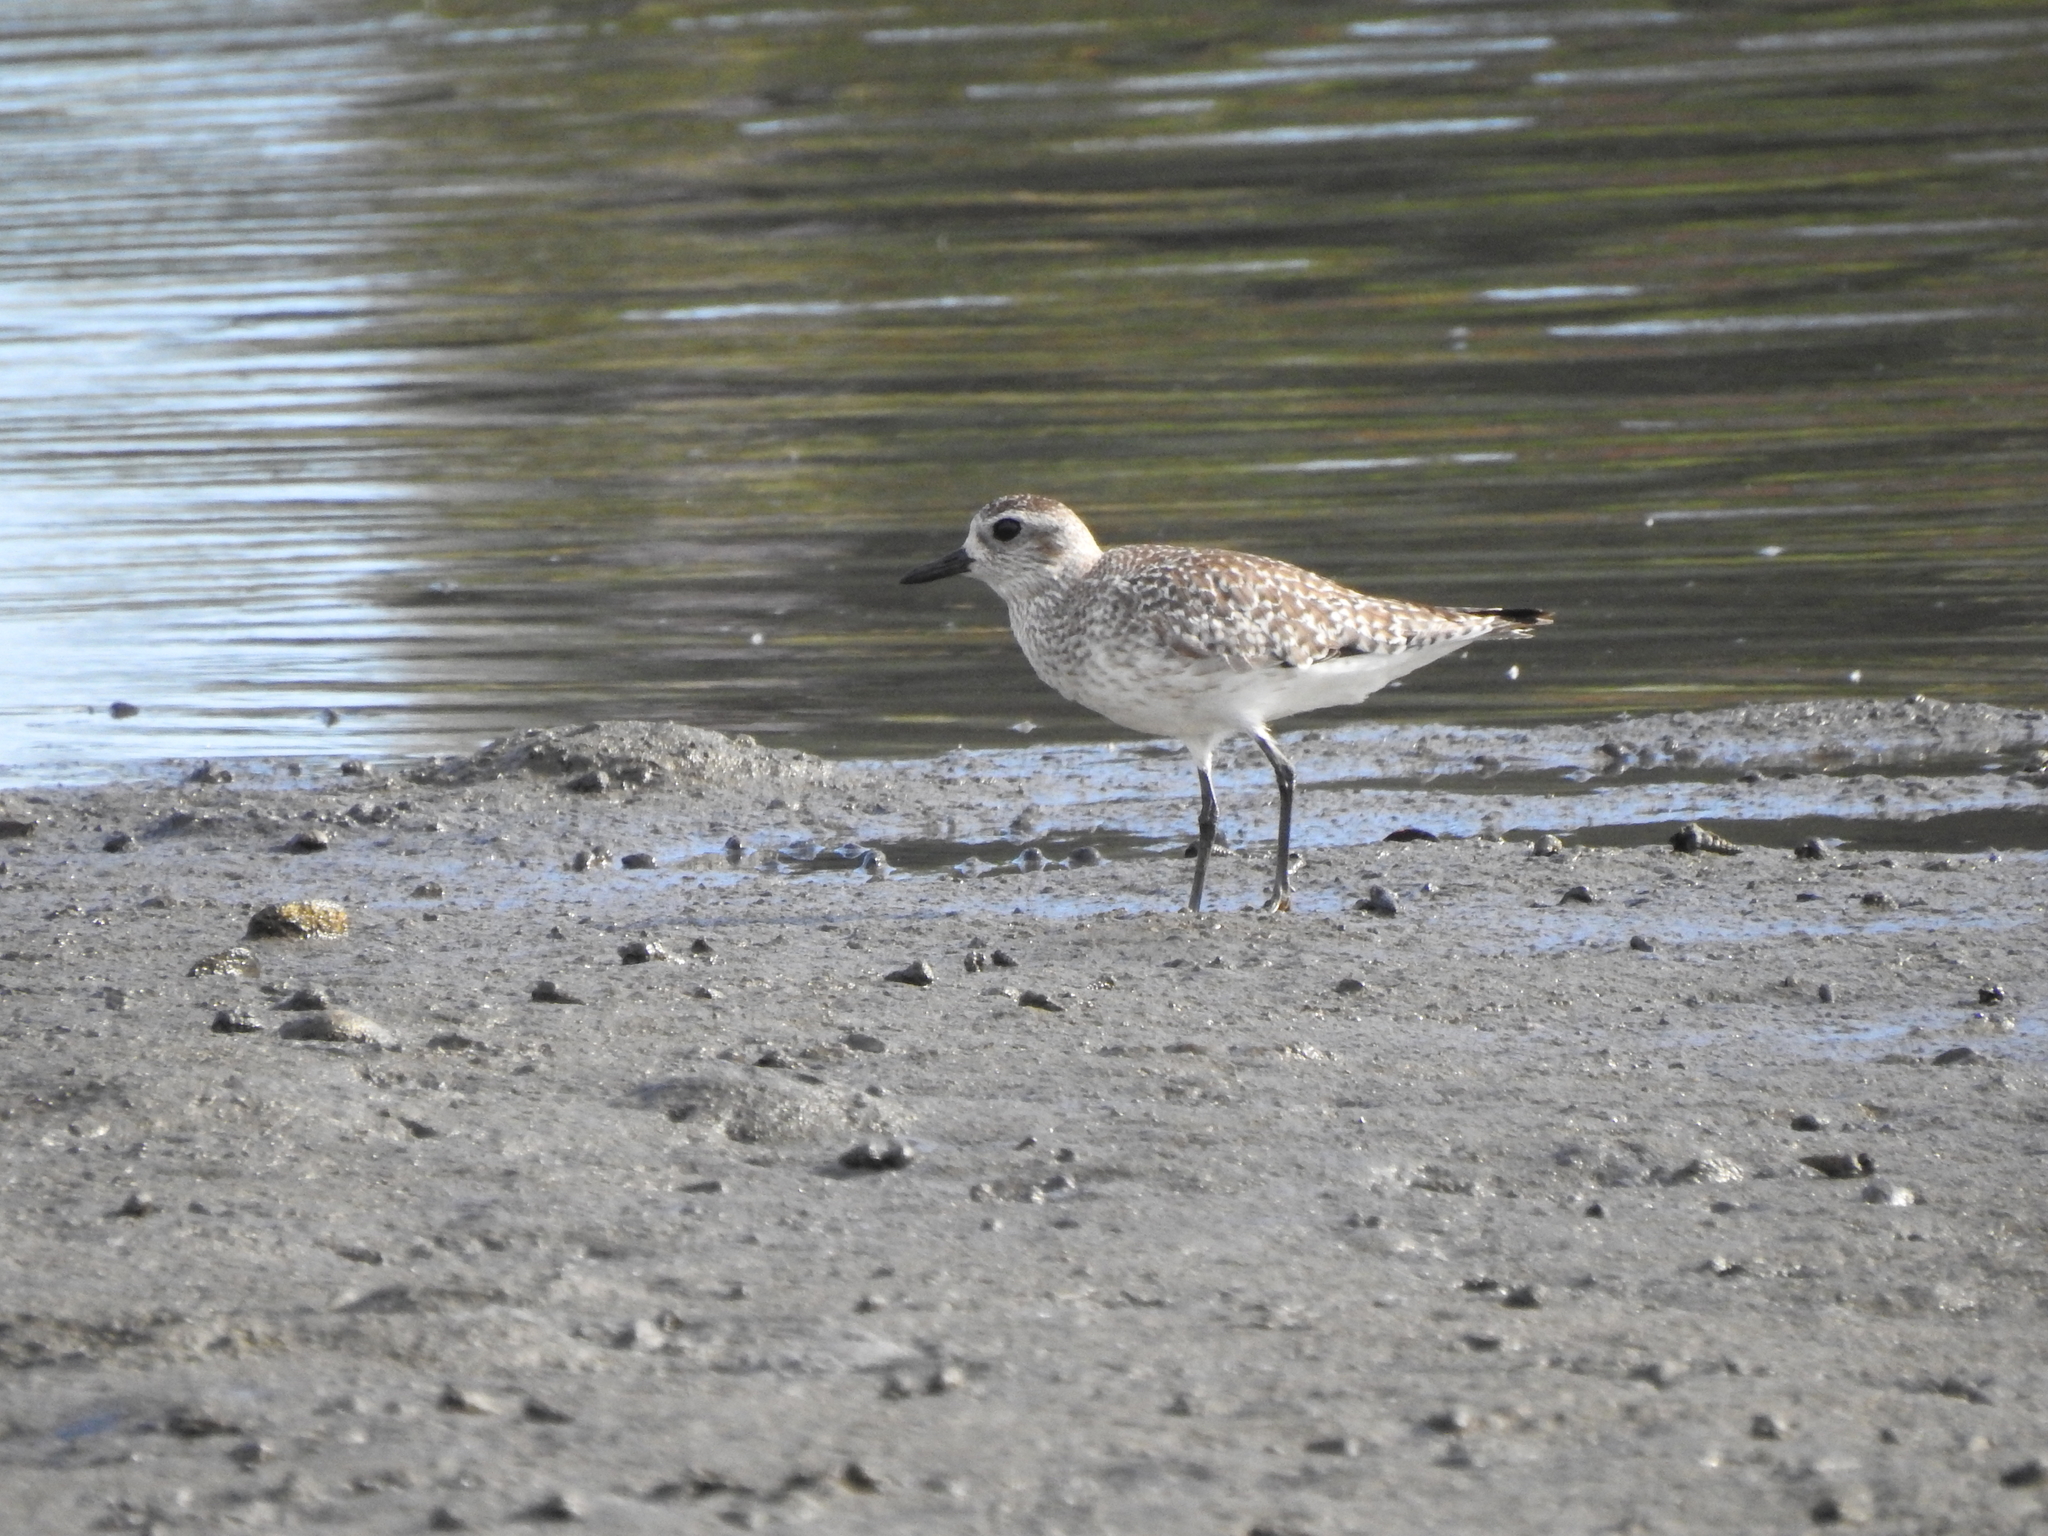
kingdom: Animalia
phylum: Chordata
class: Aves
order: Charadriiformes
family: Charadriidae
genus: Pluvialis
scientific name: Pluvialis squatarola
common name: Grey plover
